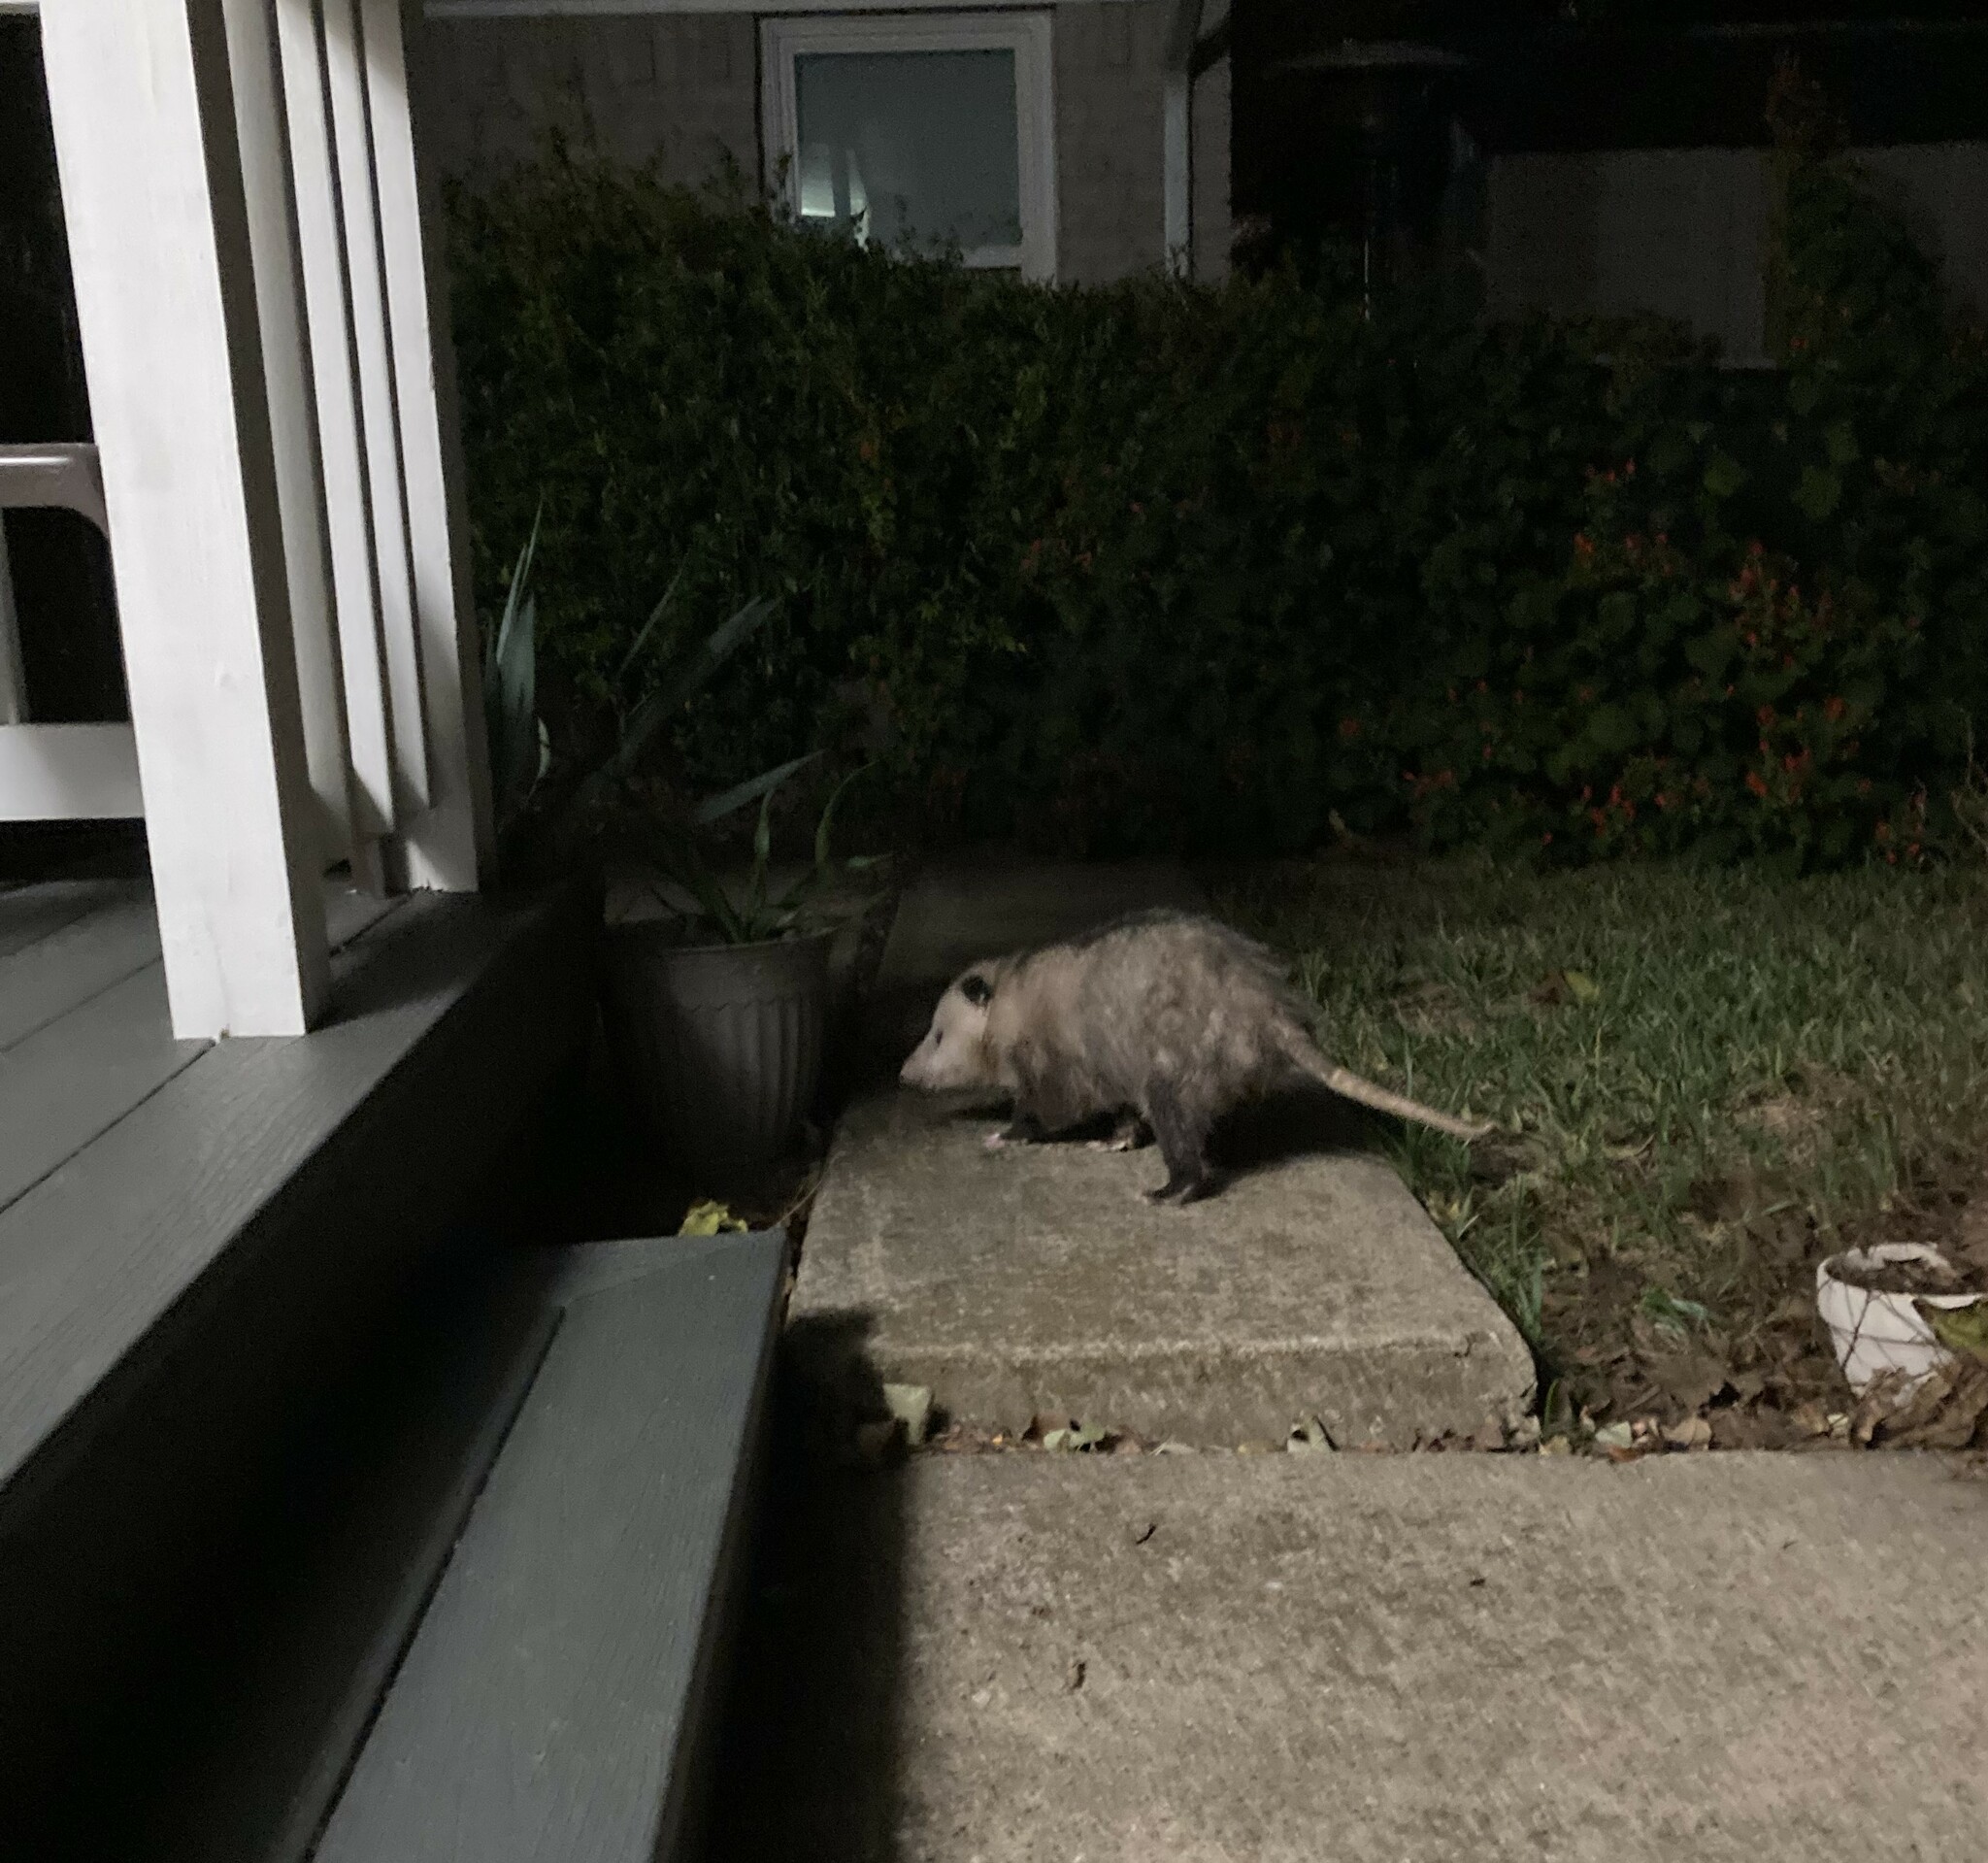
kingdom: Animalia
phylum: Chordata
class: Mammalia
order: Didelphimorphia
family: Didelphidae
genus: Didelphis
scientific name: Didelphis virginiana
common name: Virginia opossum
